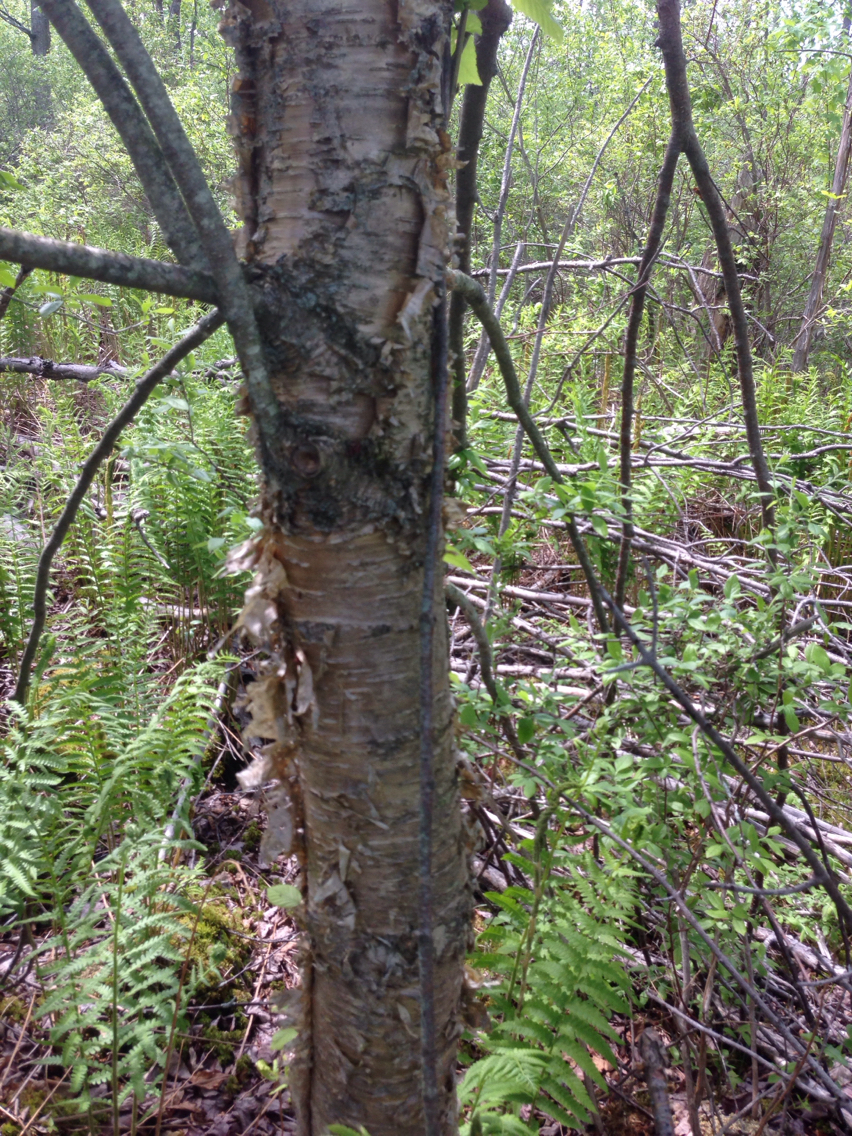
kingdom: Plantae
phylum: Tracheophyta
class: Magnoliopsida
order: Fagales
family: Betulaceae
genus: Betula
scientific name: Betula alleghaniensis
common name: Yellow birch
